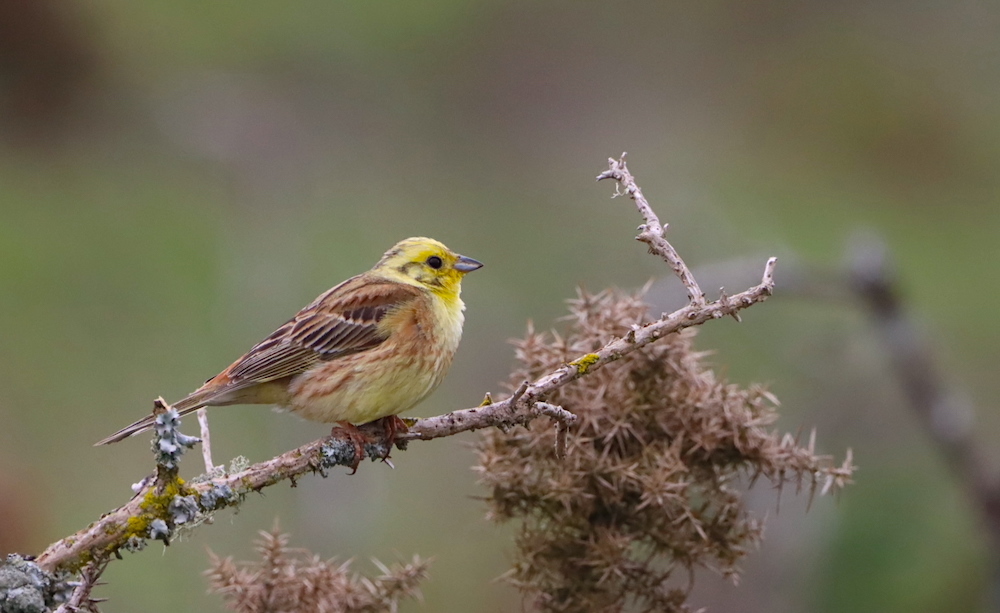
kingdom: Animalia
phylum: Chordata
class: Aves
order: Passeriformes
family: Emberizidae
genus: Emberiza
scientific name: Emberiza citrinella
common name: Yellowhammer
